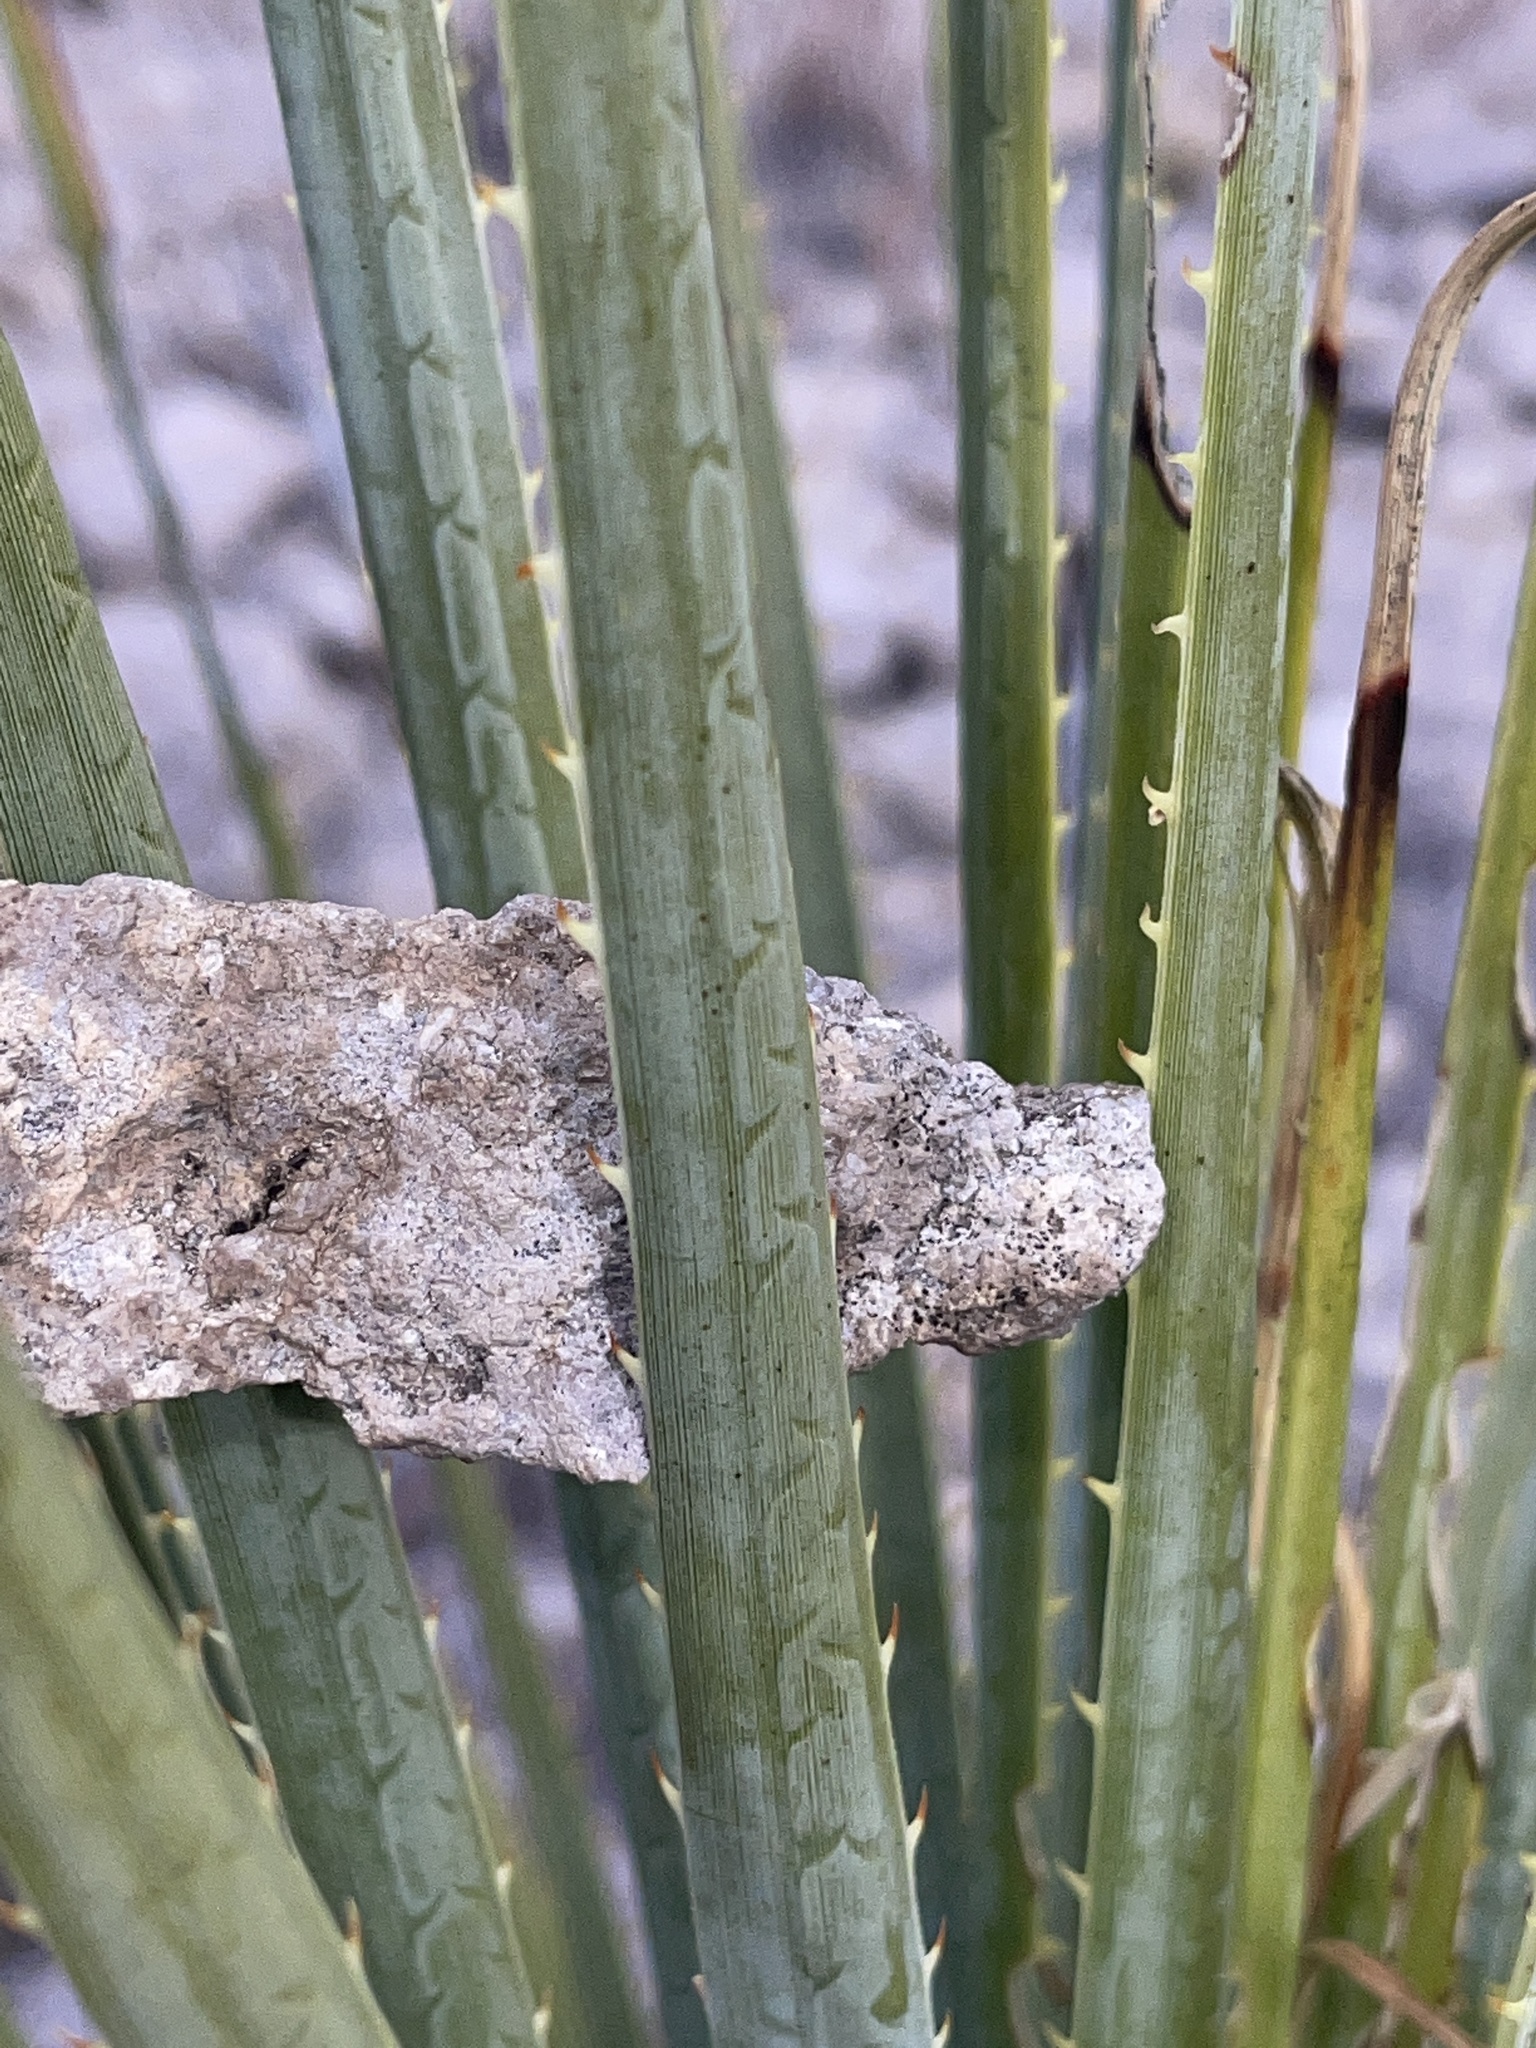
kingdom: Plantae
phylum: Tracheophyta
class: Liliopsida
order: Asparagales
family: Asparagaceae
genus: Dasylirion
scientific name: Dasylirion wheeleri
